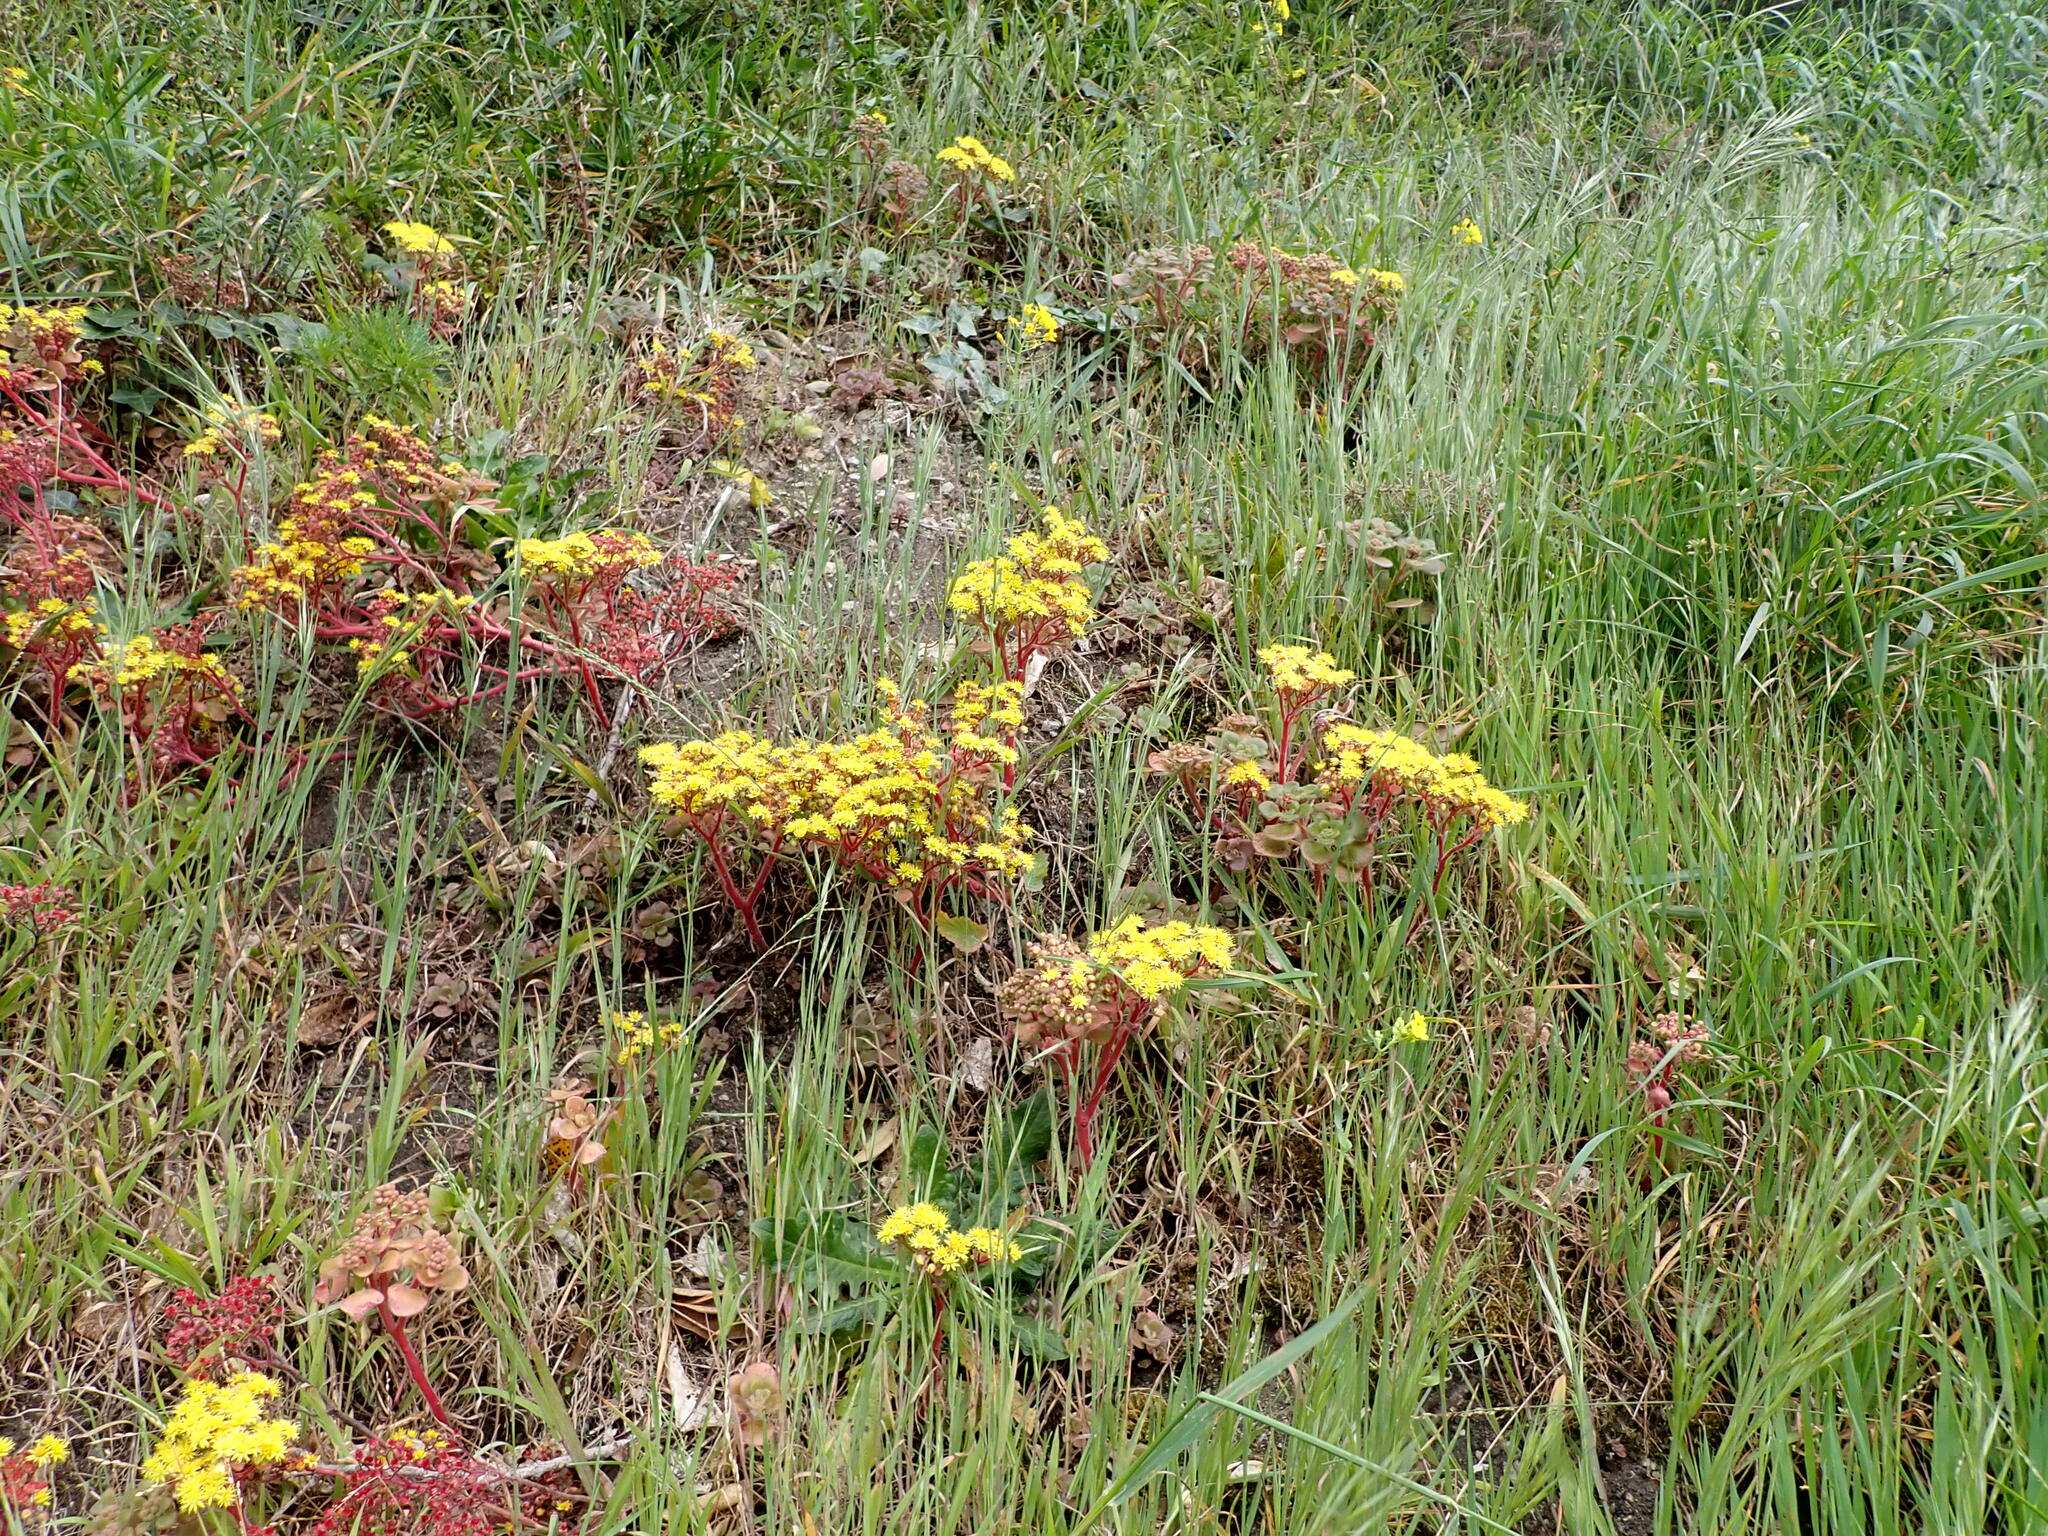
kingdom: Plantae
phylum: Tracheophyta
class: Magnoliopsida
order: Saxifragales
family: Crassulaceae
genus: Aichryson
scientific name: Aichryson laxum
